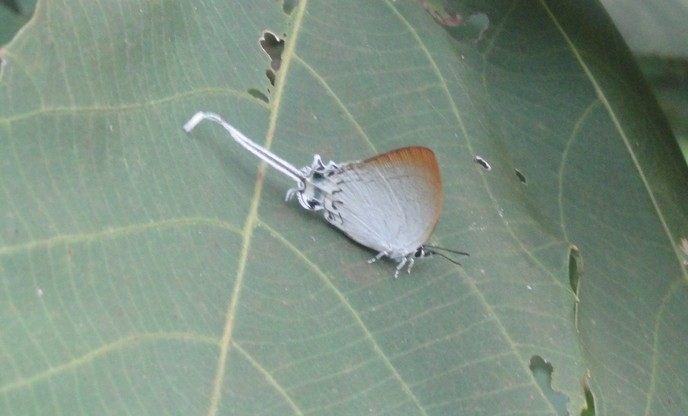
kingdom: Animalia
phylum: Arthropoda
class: Insecta
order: Lepidoptera
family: Lycaenidae
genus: Cheritra
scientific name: Cheritra freja
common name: Common imperial
